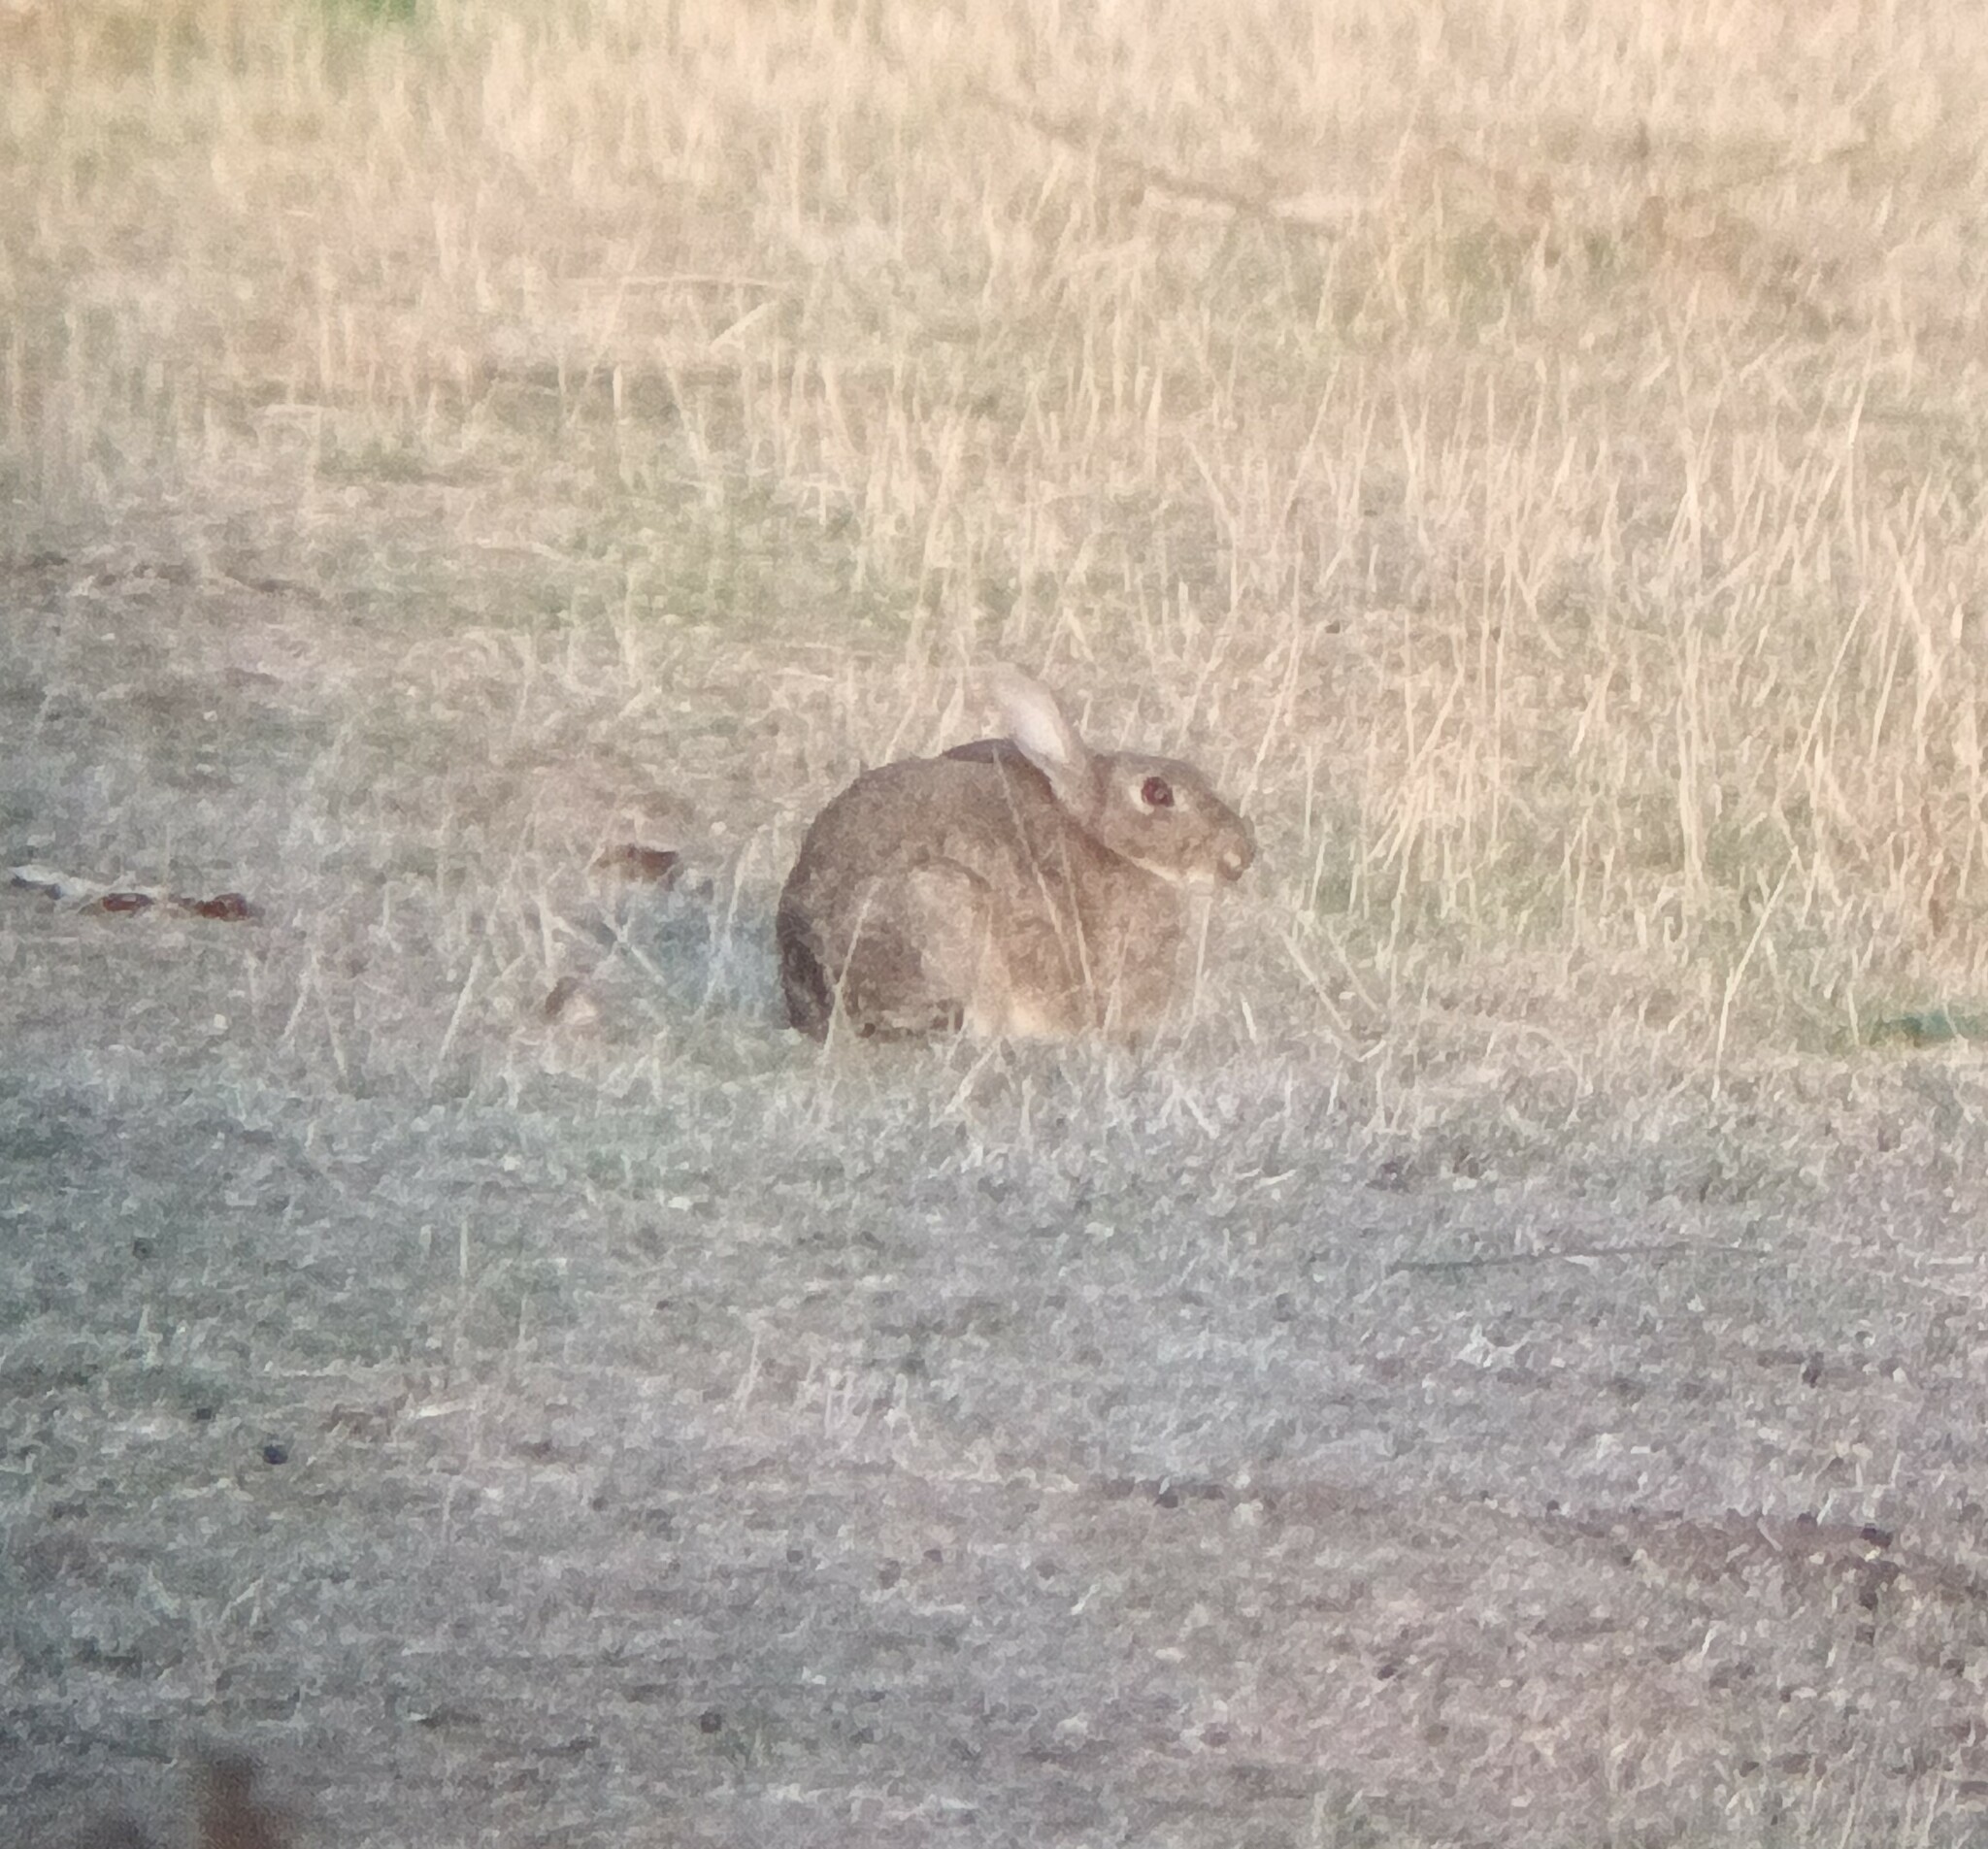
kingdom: Animalia
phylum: Chordata
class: Mammalia
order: Lagomorpha
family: Leporidae
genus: Oryctolagus
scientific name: Oryctolagus cuniculus
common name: European rabbit
